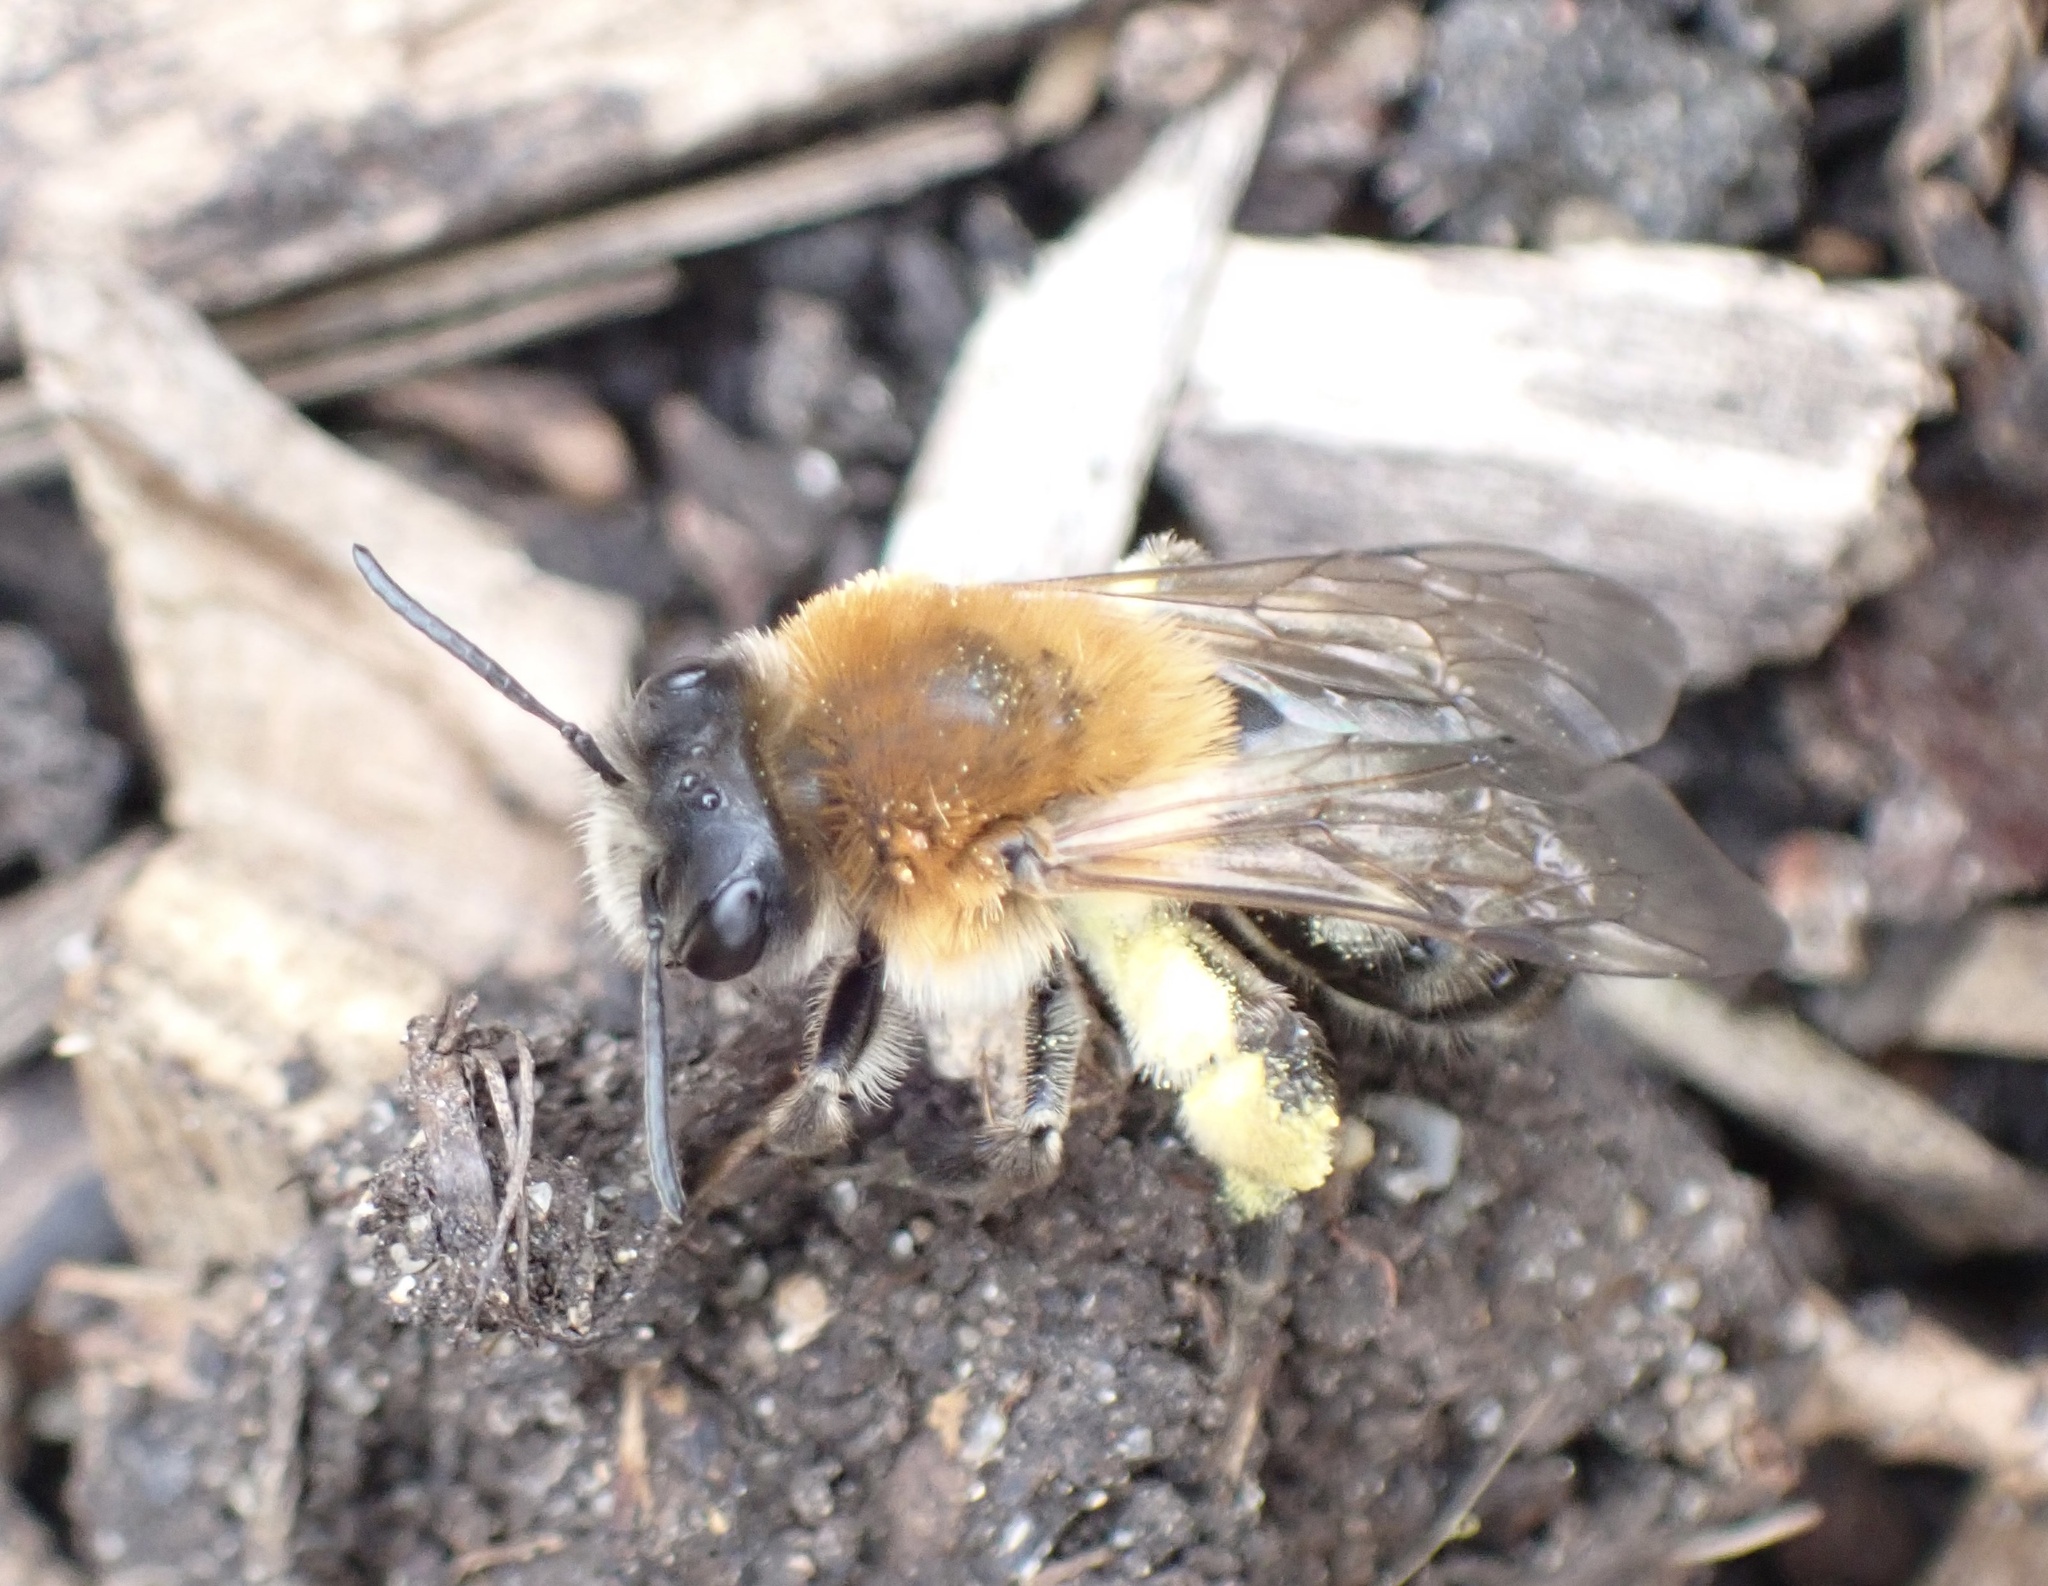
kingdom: Animalia
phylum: Arthropoda
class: Insecta
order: Hymenoptera
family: Andrenidae
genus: Andrena
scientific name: Andrena nitida
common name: Grey-patched mining bee
